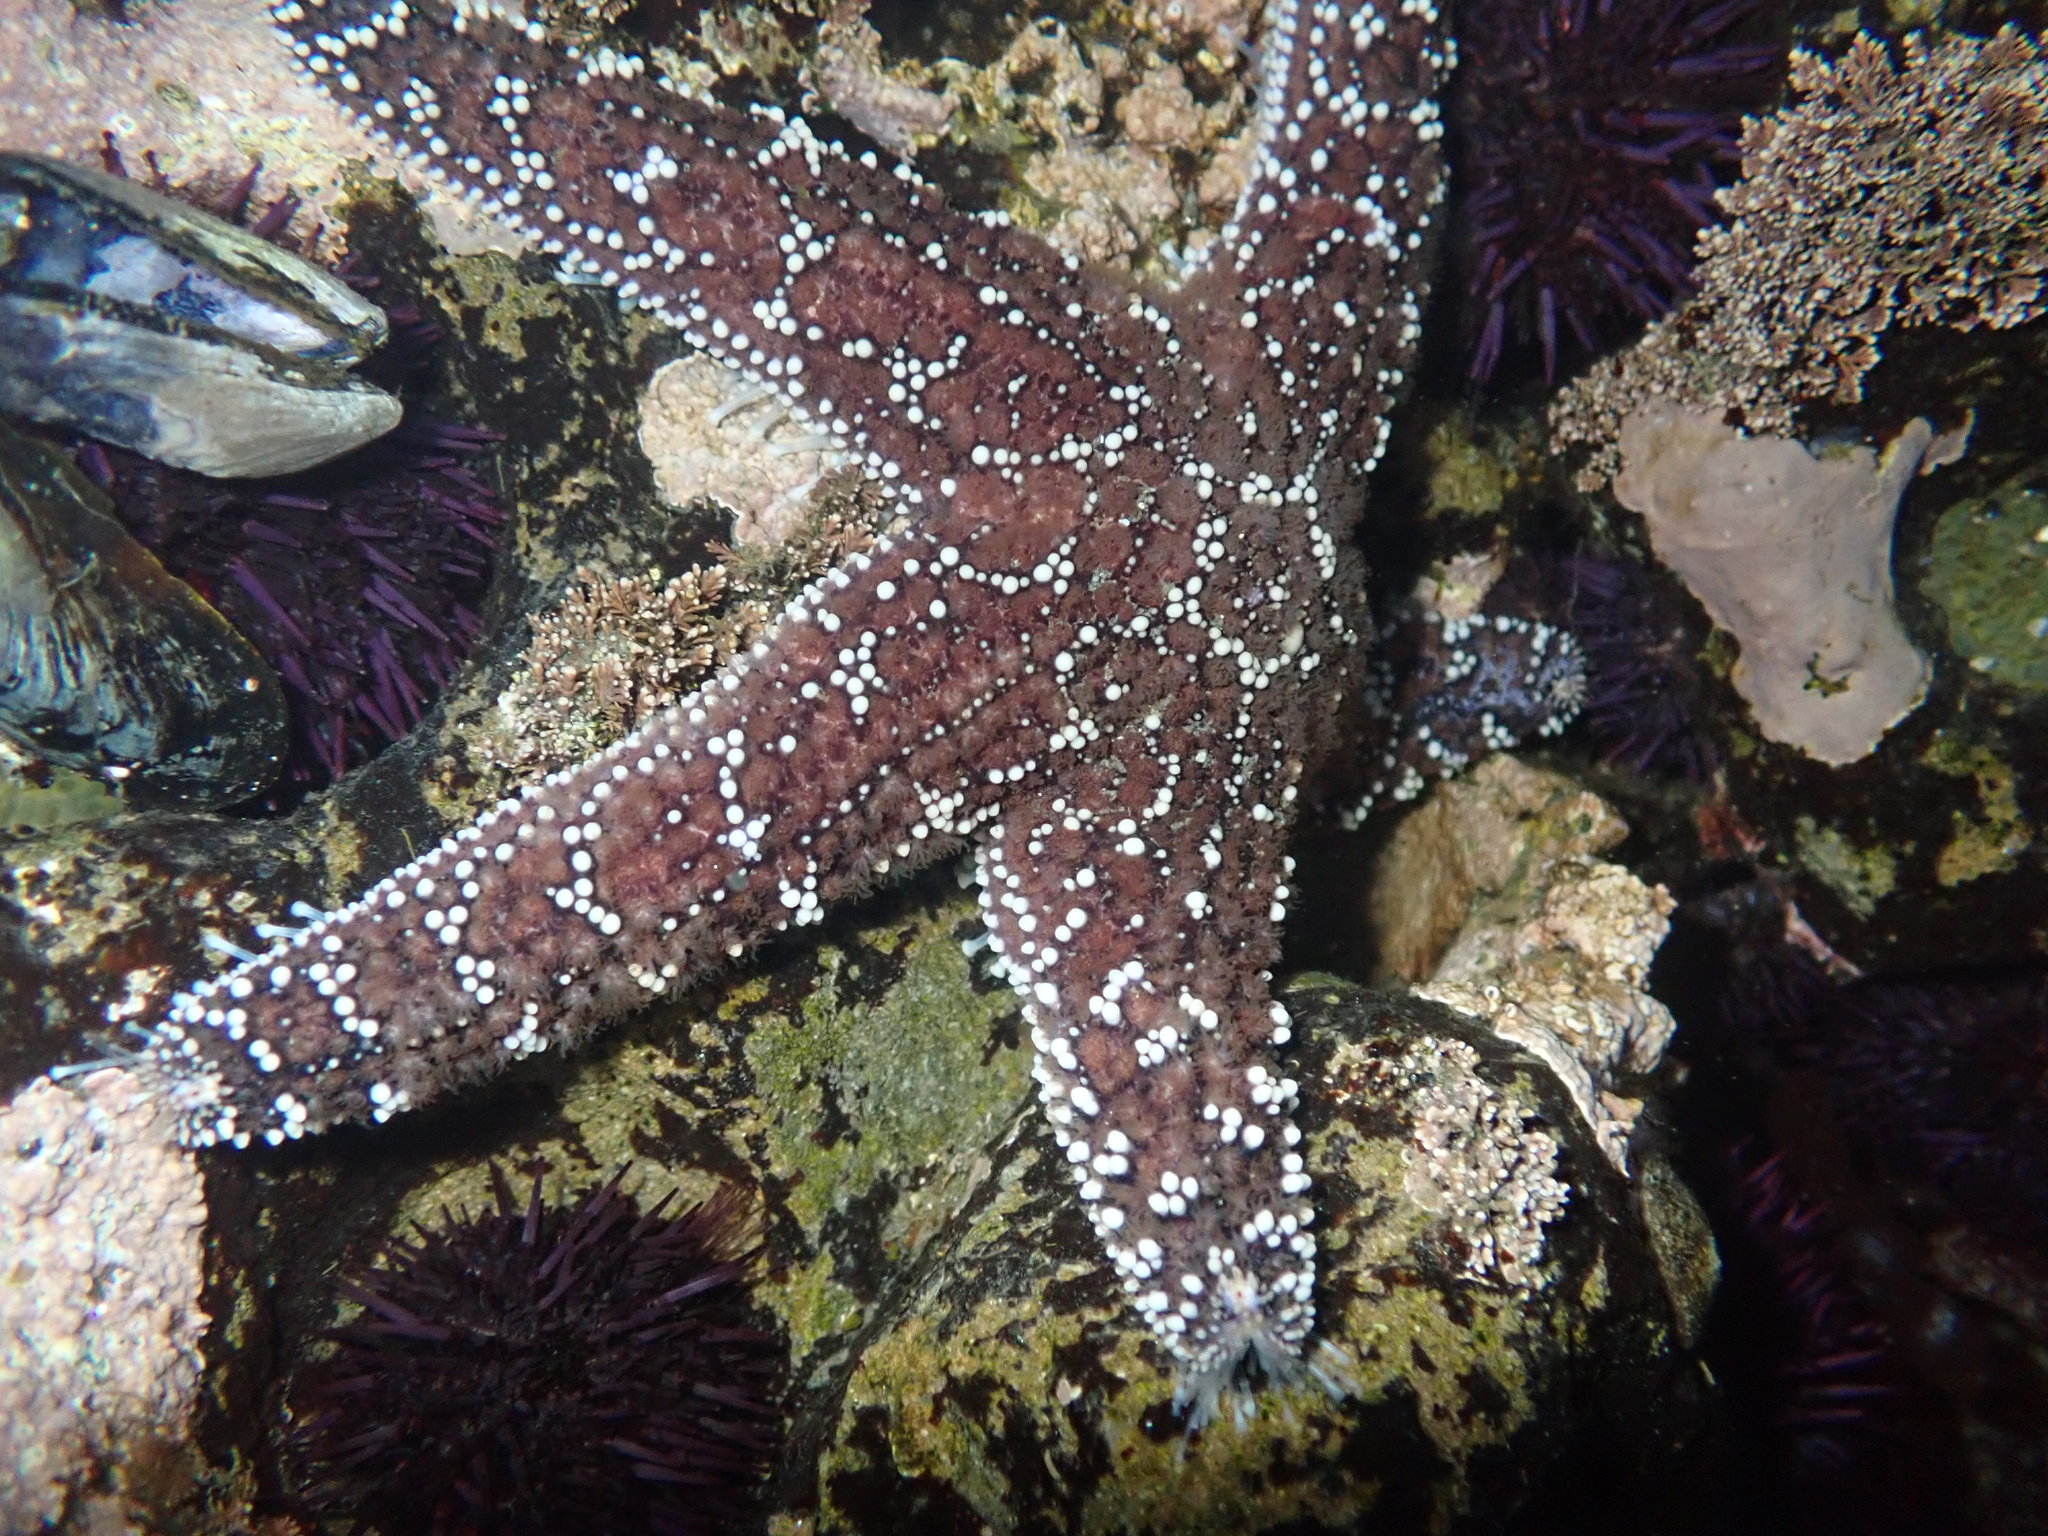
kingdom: Animalia
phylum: Echinodermata
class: Asteroidea
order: Forcipulatida
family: Asteriidae
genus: Pisaster
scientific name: Pisaster ochraceus
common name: Ochre stars
